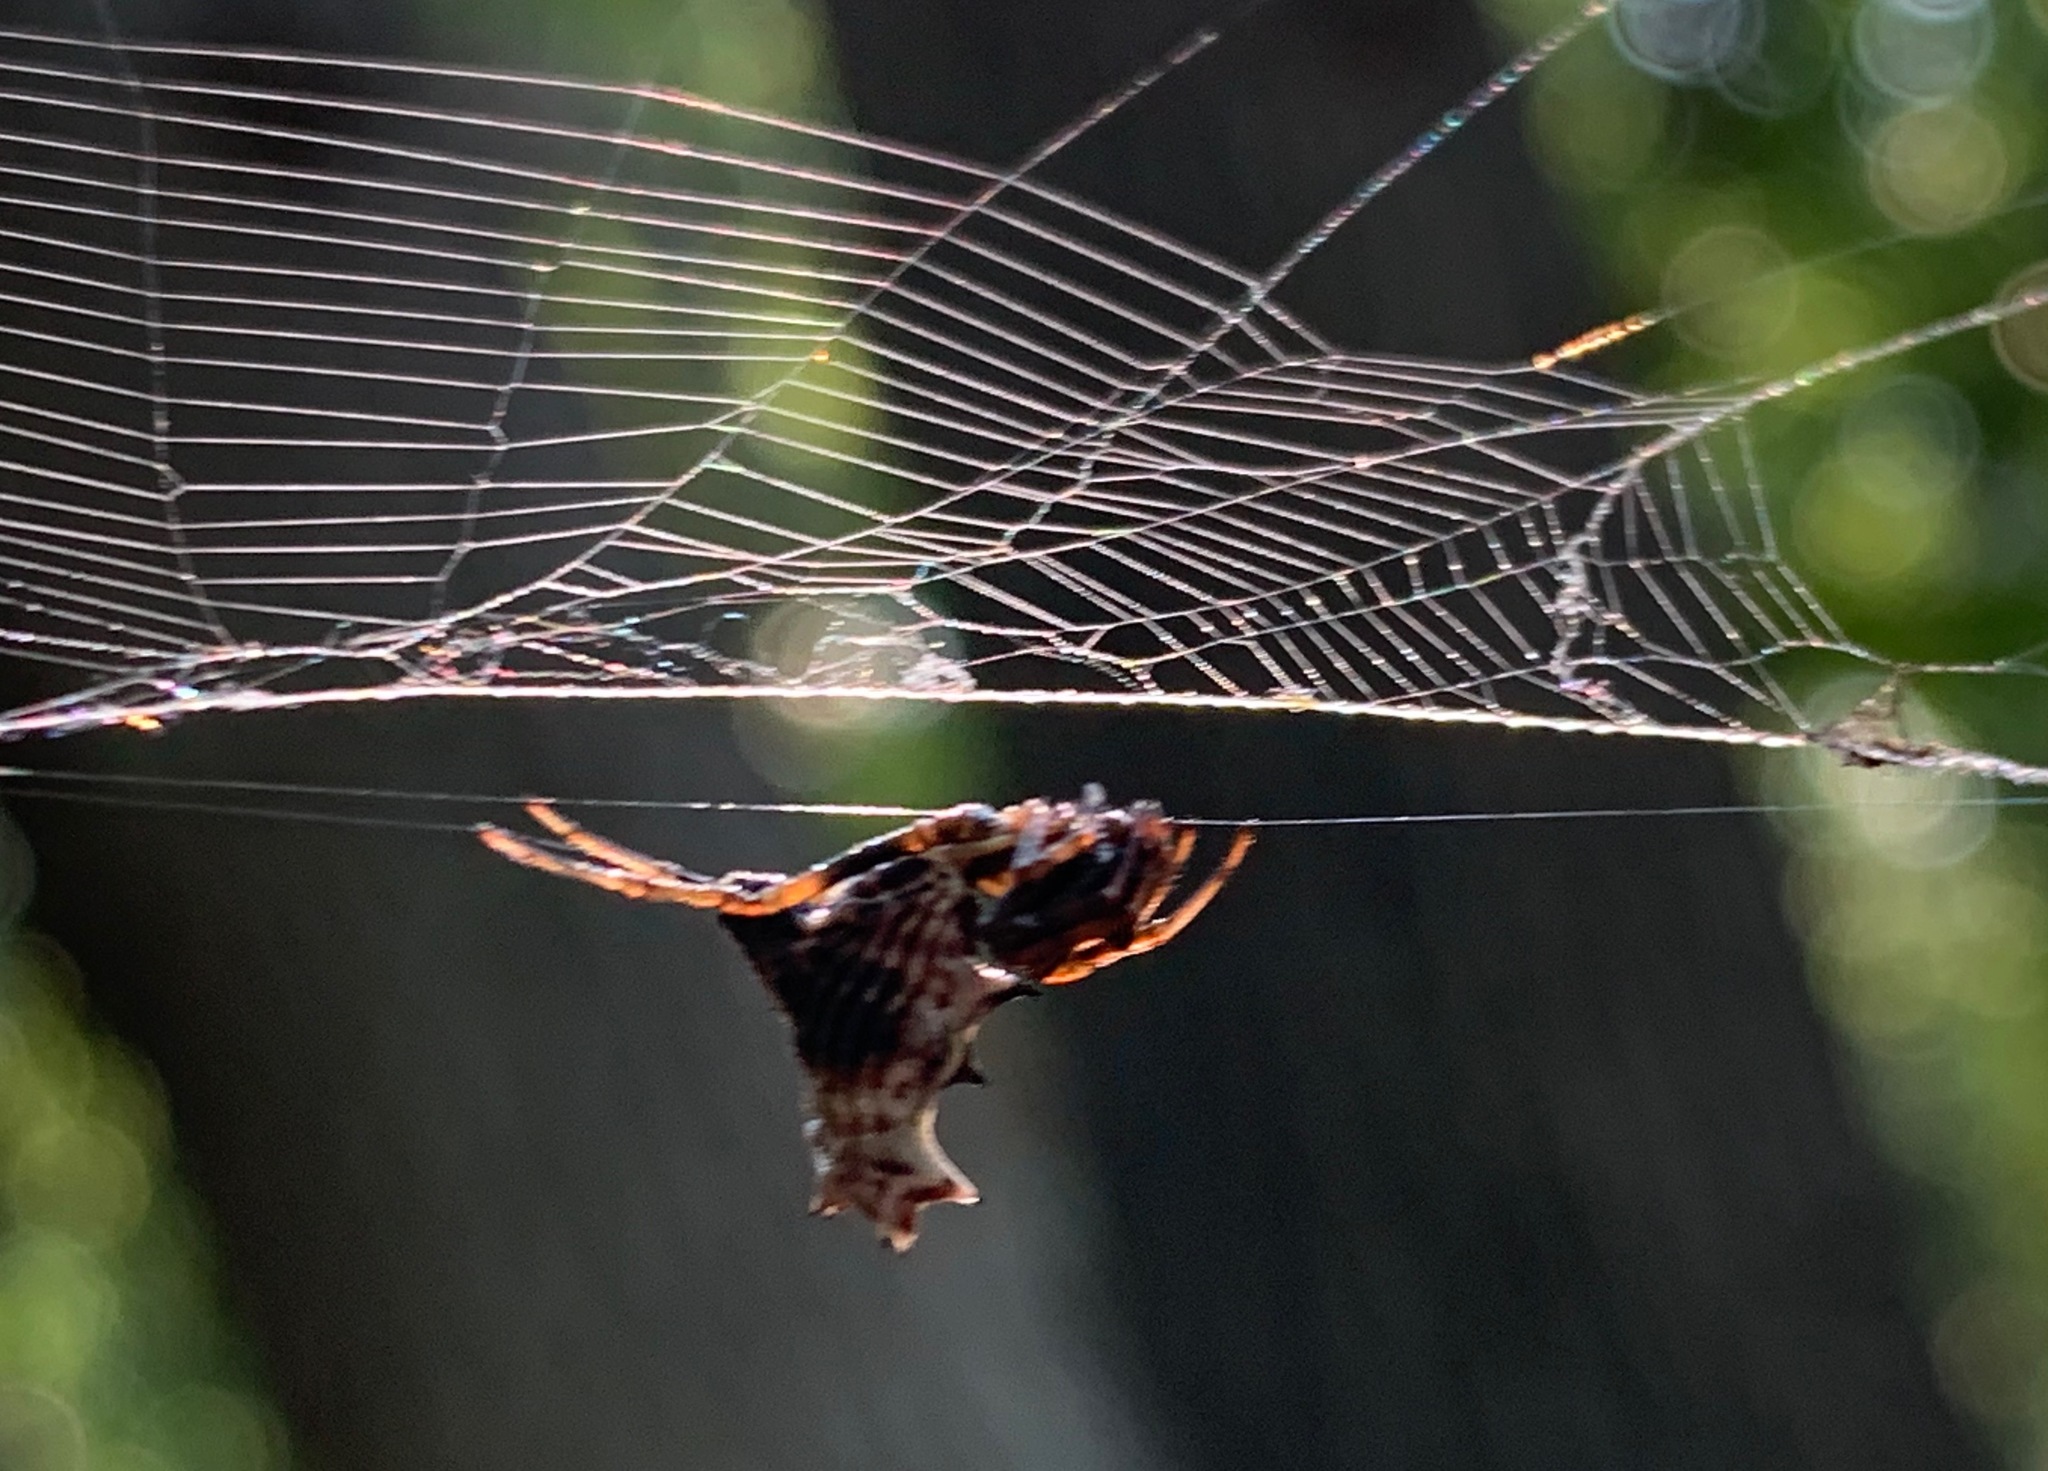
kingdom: Animalia
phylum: Arthropoda
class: Arachnida
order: Araneae
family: Araneidae
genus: Micrathena
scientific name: Micrathena gracilis
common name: Orb weavers
